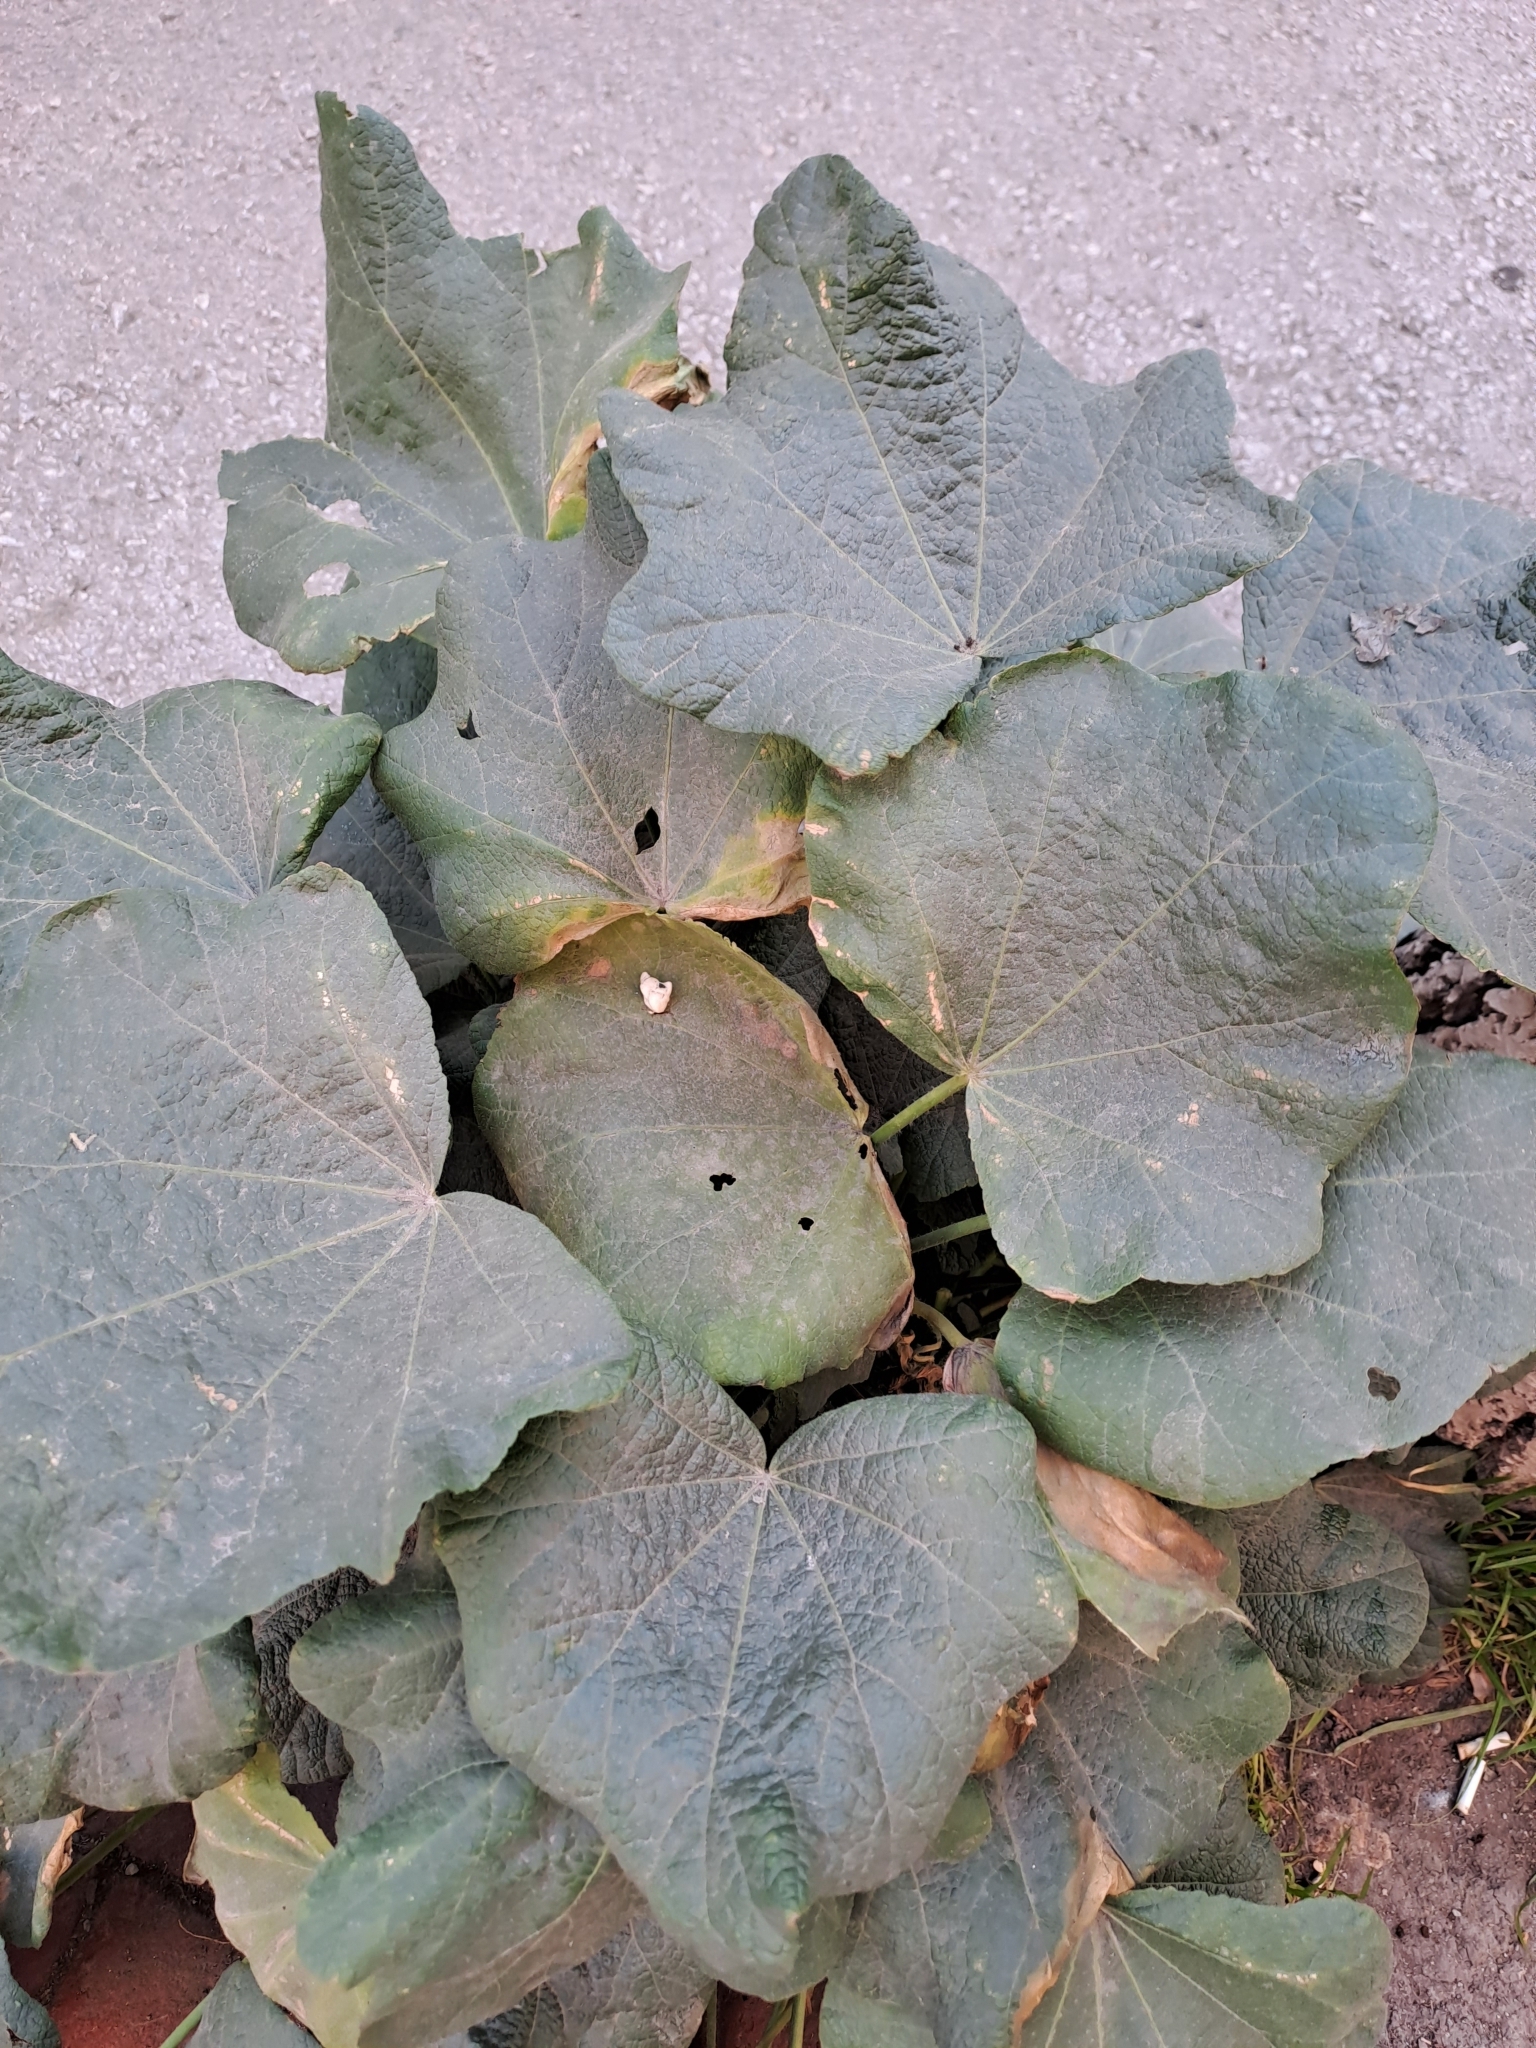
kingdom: Plantae
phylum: Tracheophyta
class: Magnoliopsida
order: Malvales
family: Malvaceae
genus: Alcea
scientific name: Alcea rosea
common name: Hollyhock
